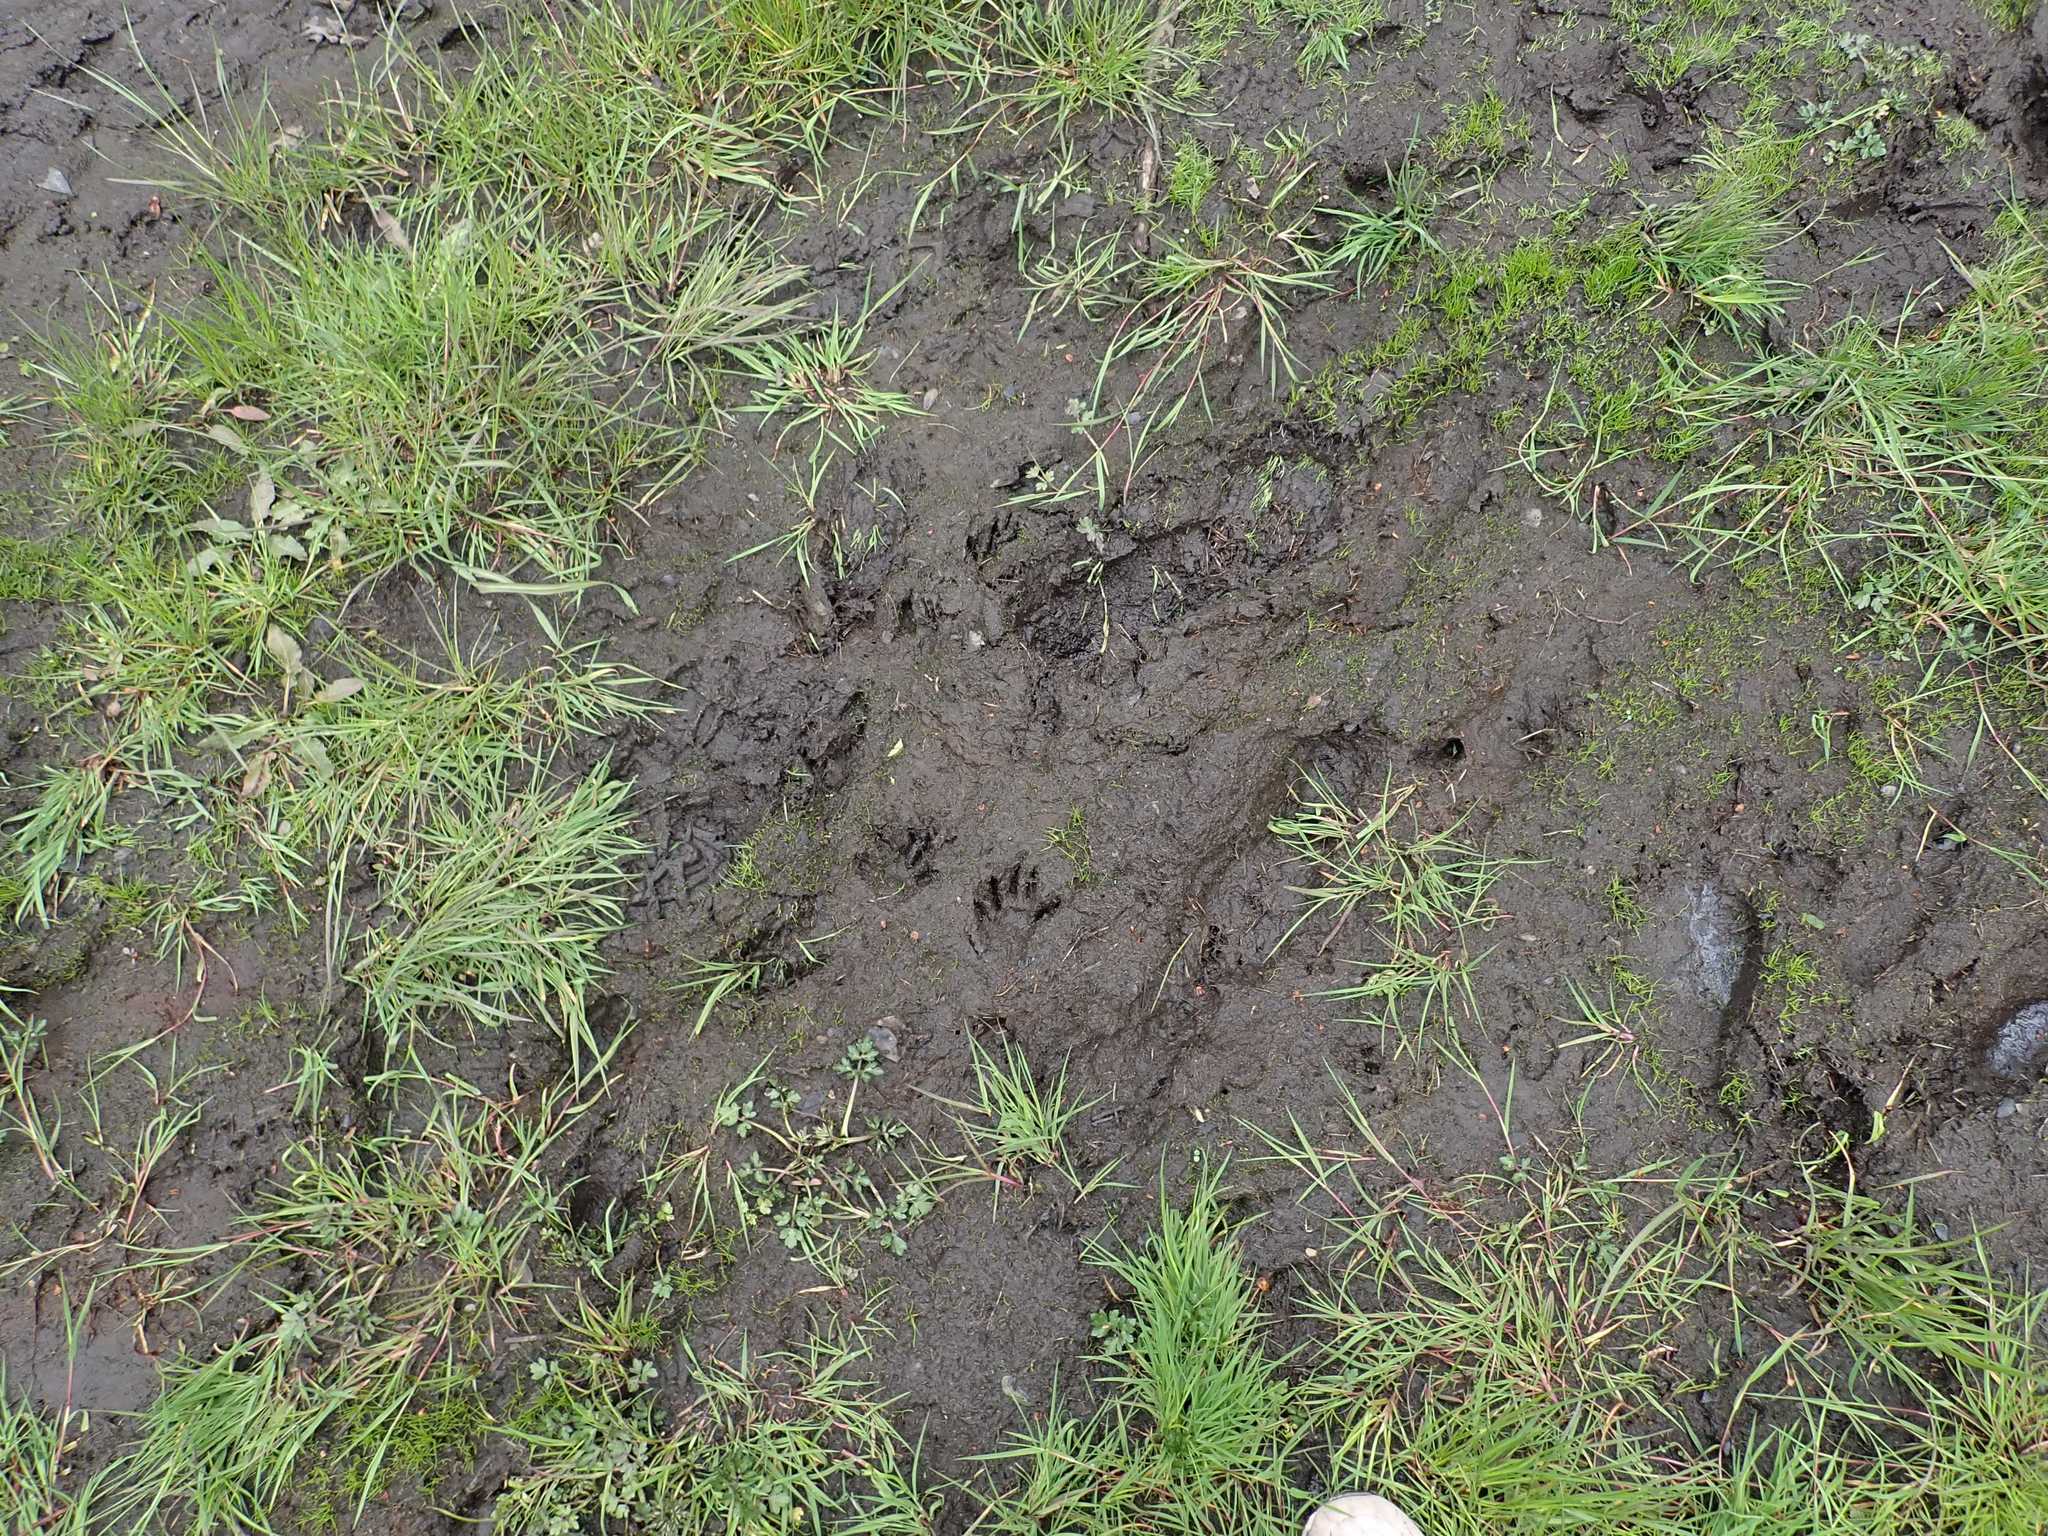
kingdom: Animalia
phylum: Chordata
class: Mammalia
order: Carnivora
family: Procyonidae
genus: Procyon
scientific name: Procyon lotor
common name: Raccoon
